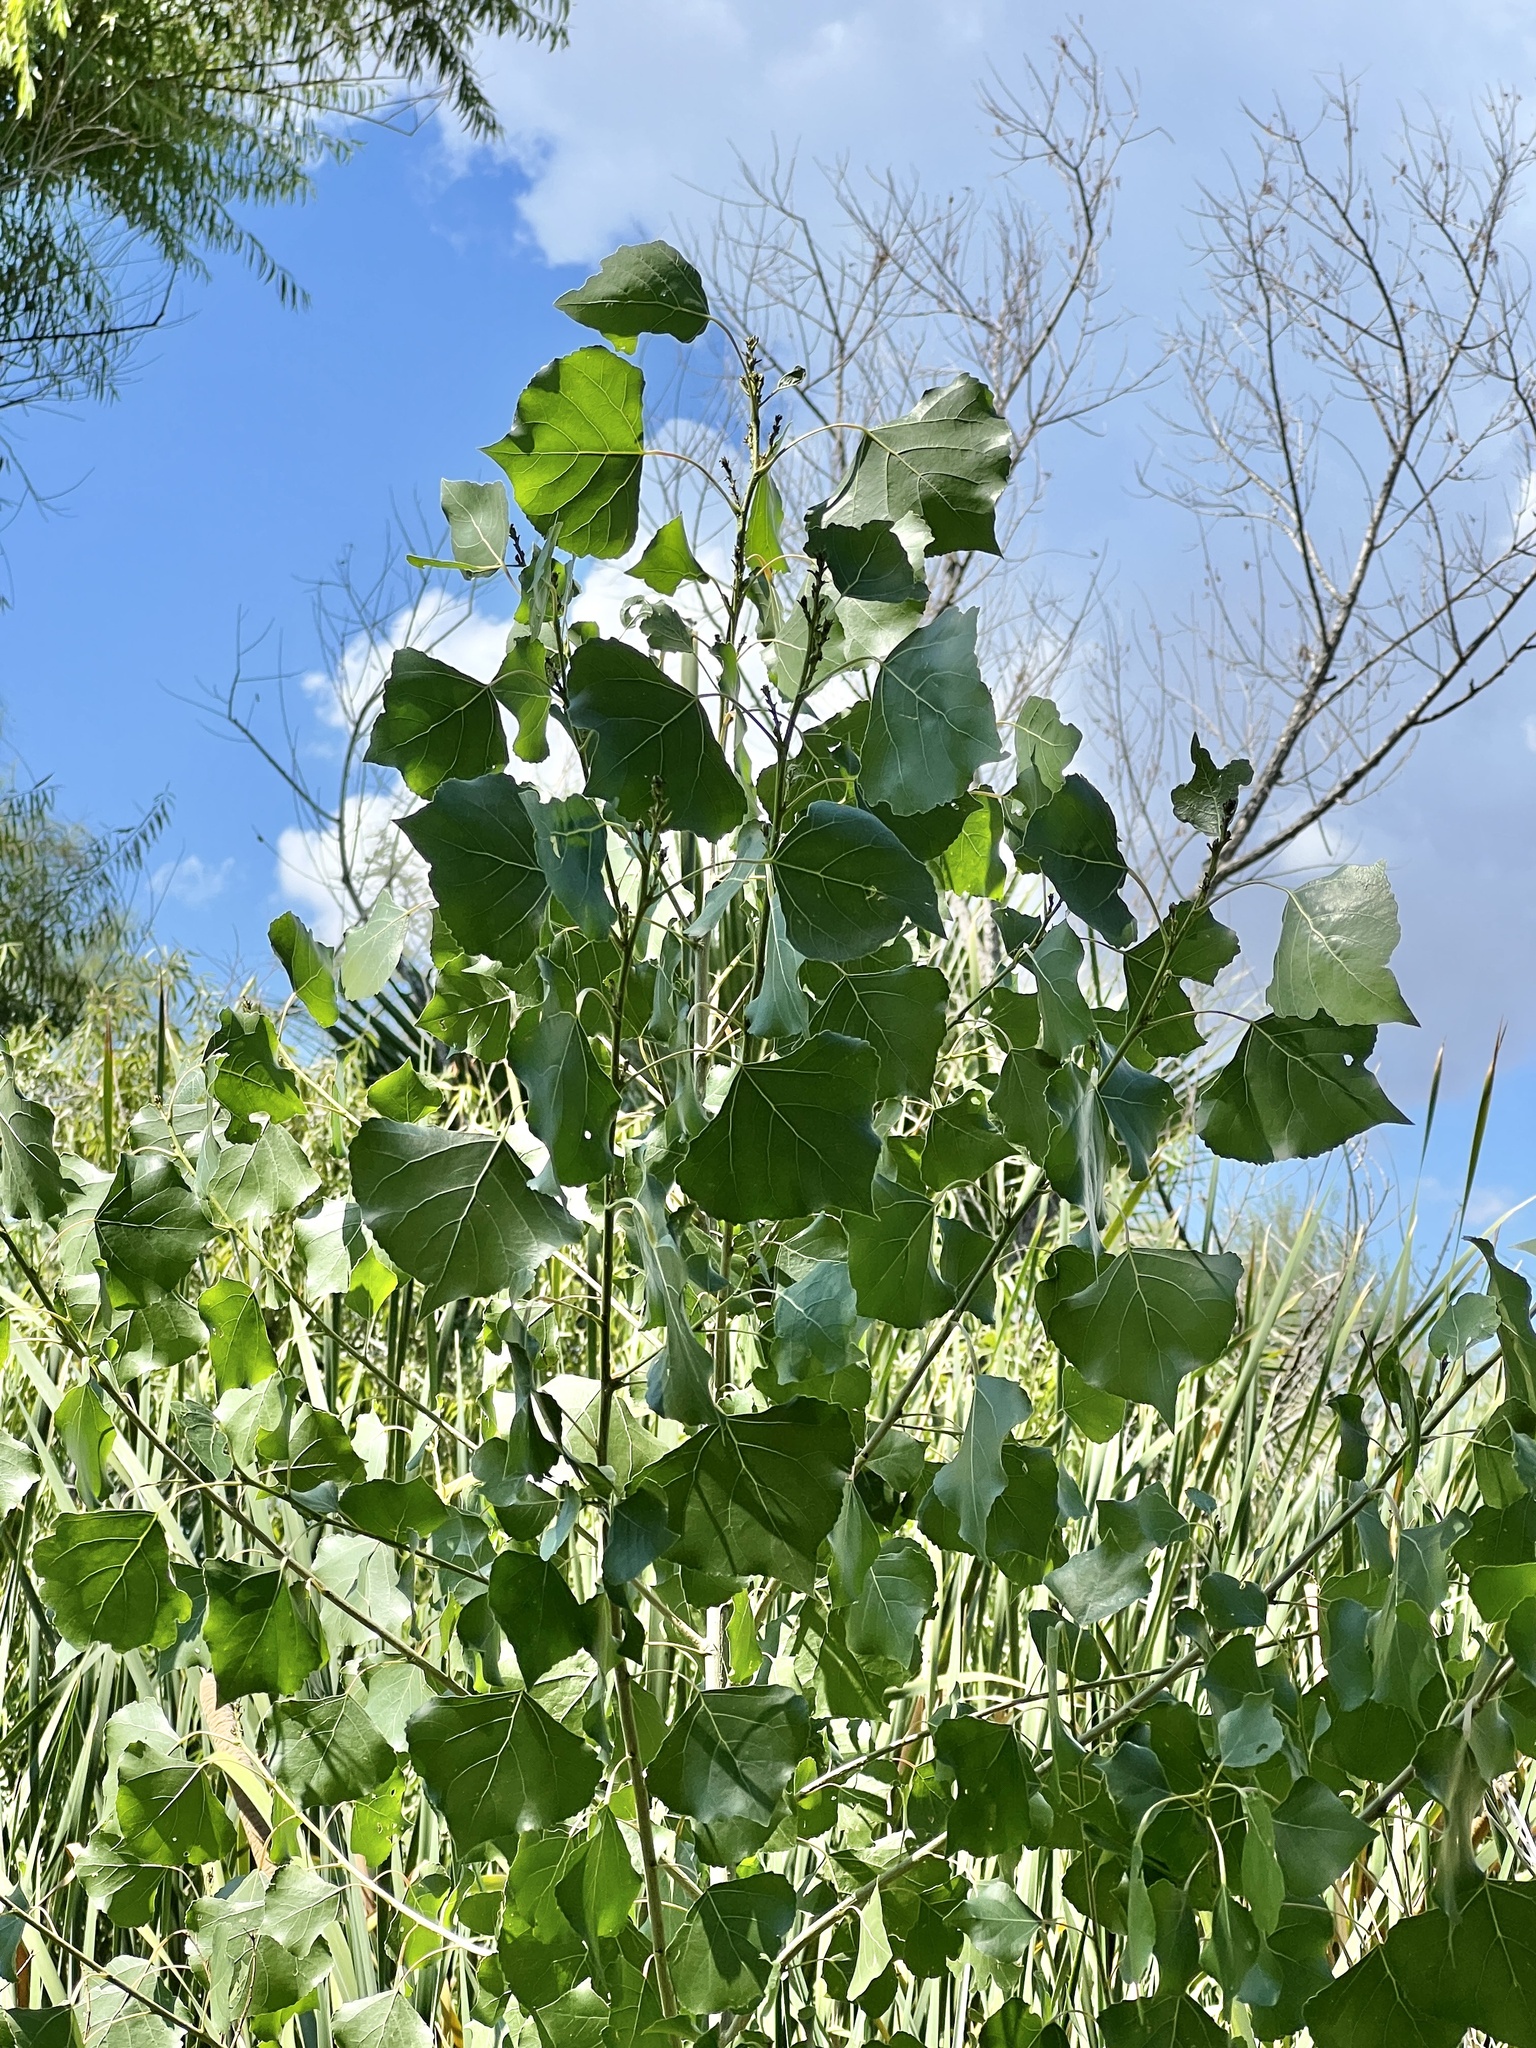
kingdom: Plantae
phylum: Tracheophyta
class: Magnoliopsida
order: Malpighiales
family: Salicaceae
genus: Populus
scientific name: Populus fremontii
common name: Fremont's cottonwood
